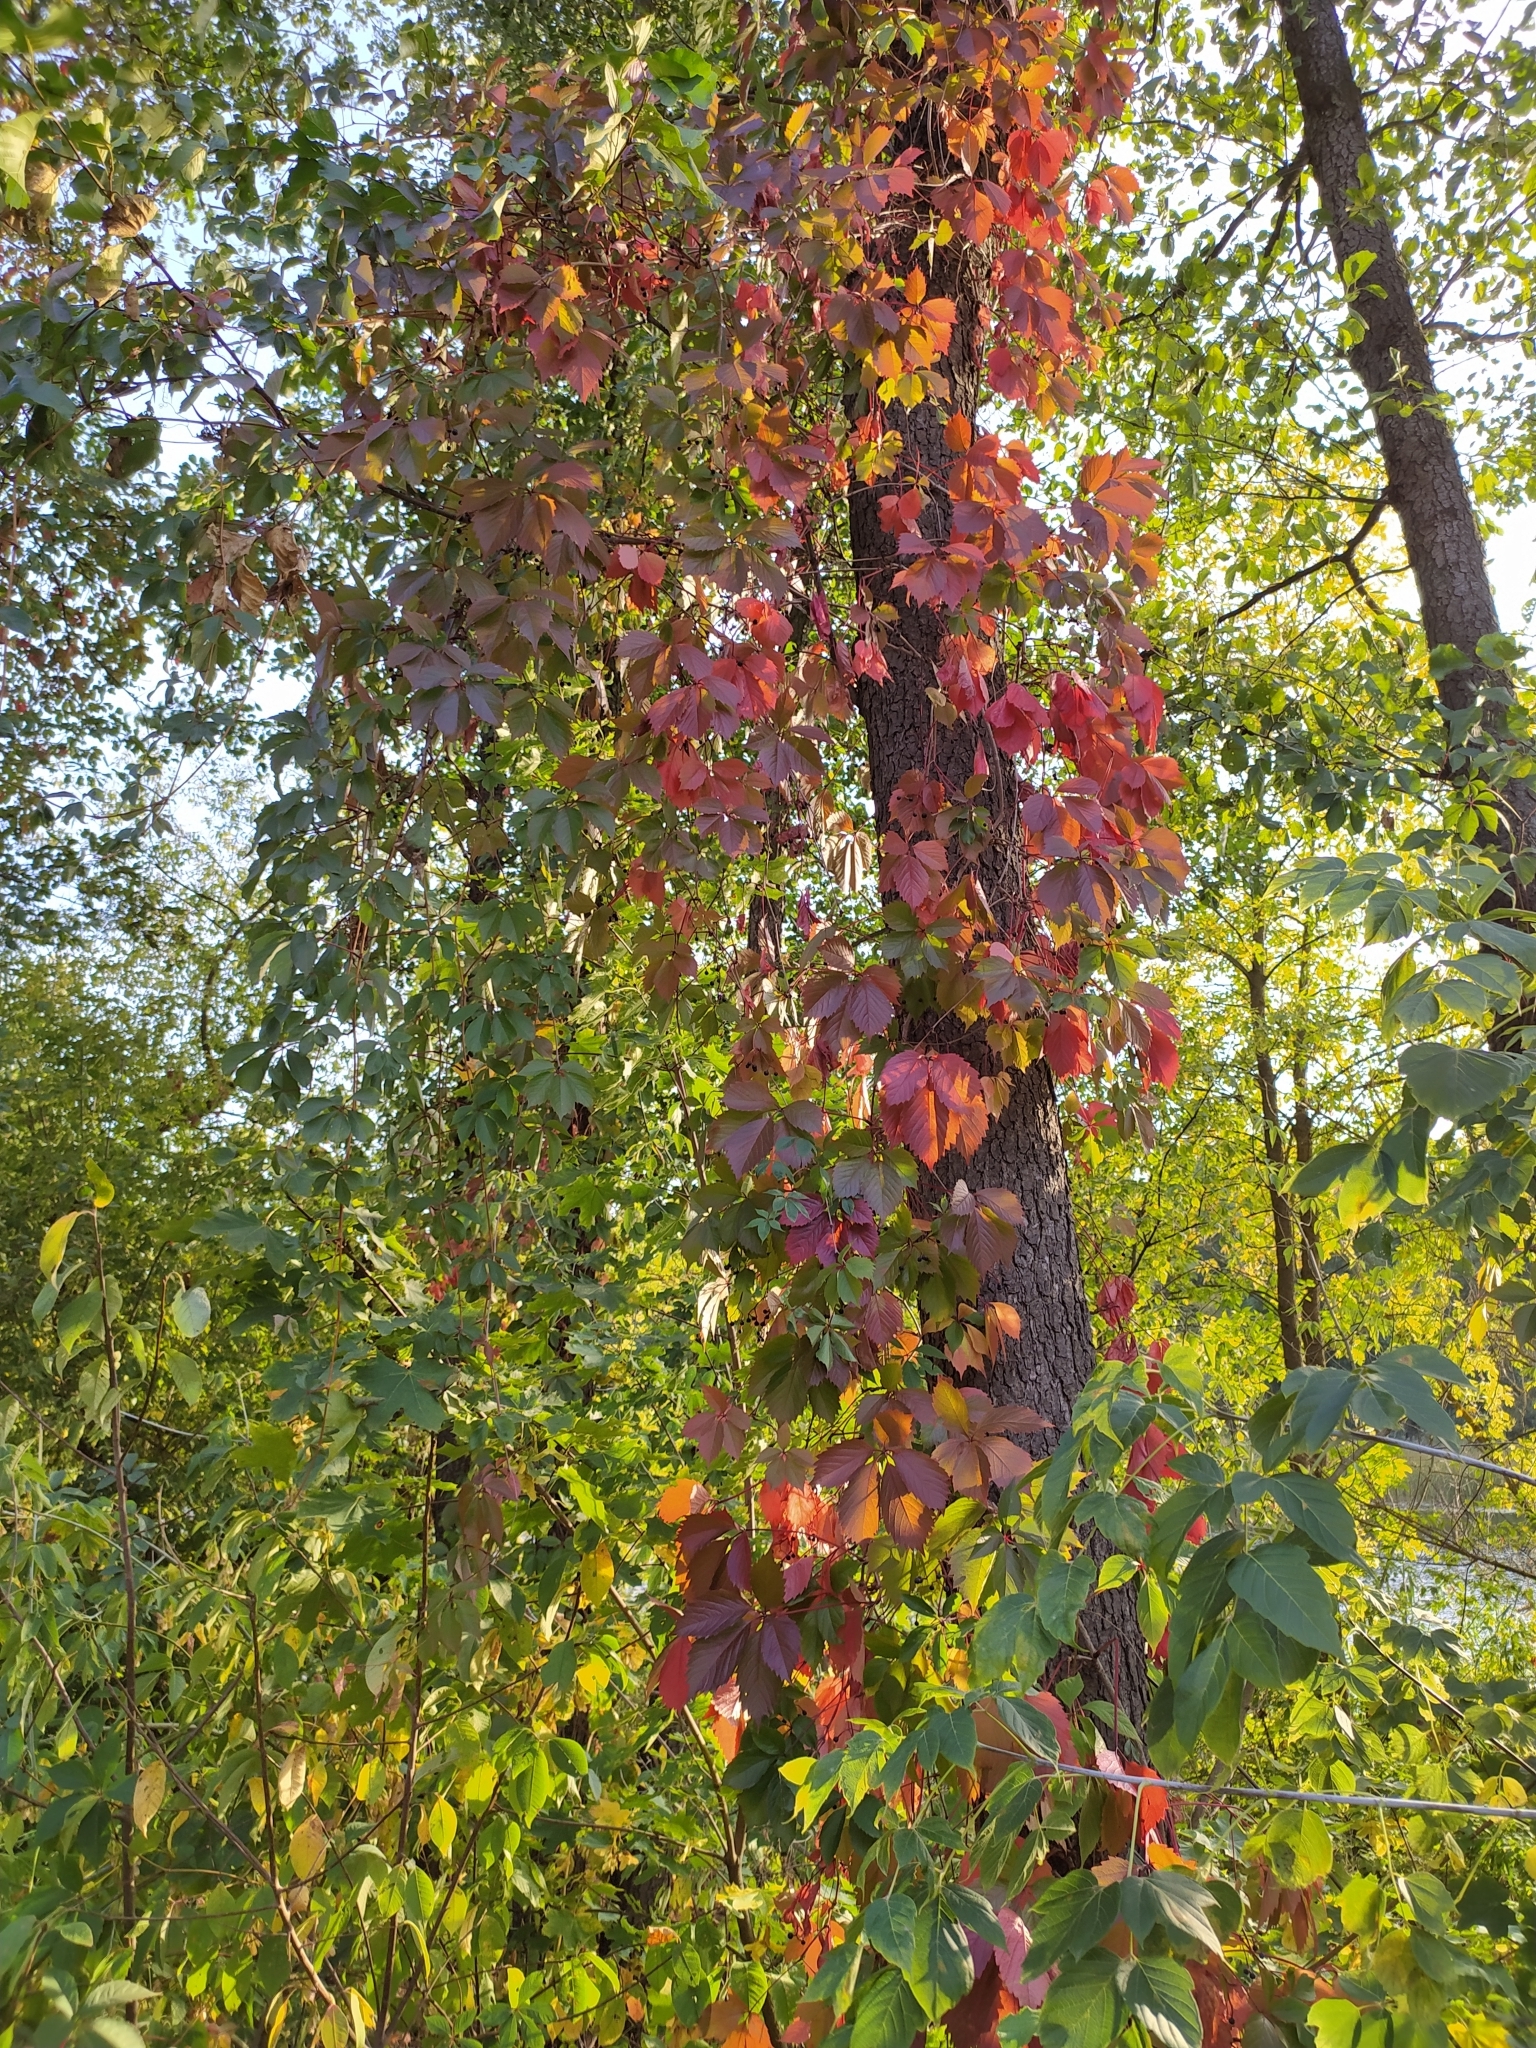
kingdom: Plantae
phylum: Tracheophyta
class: Magnoliopsida
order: Vitales
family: Vitaceae
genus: Parthenocissus
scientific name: Parthenocissus inserta
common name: False virginia-creeper
